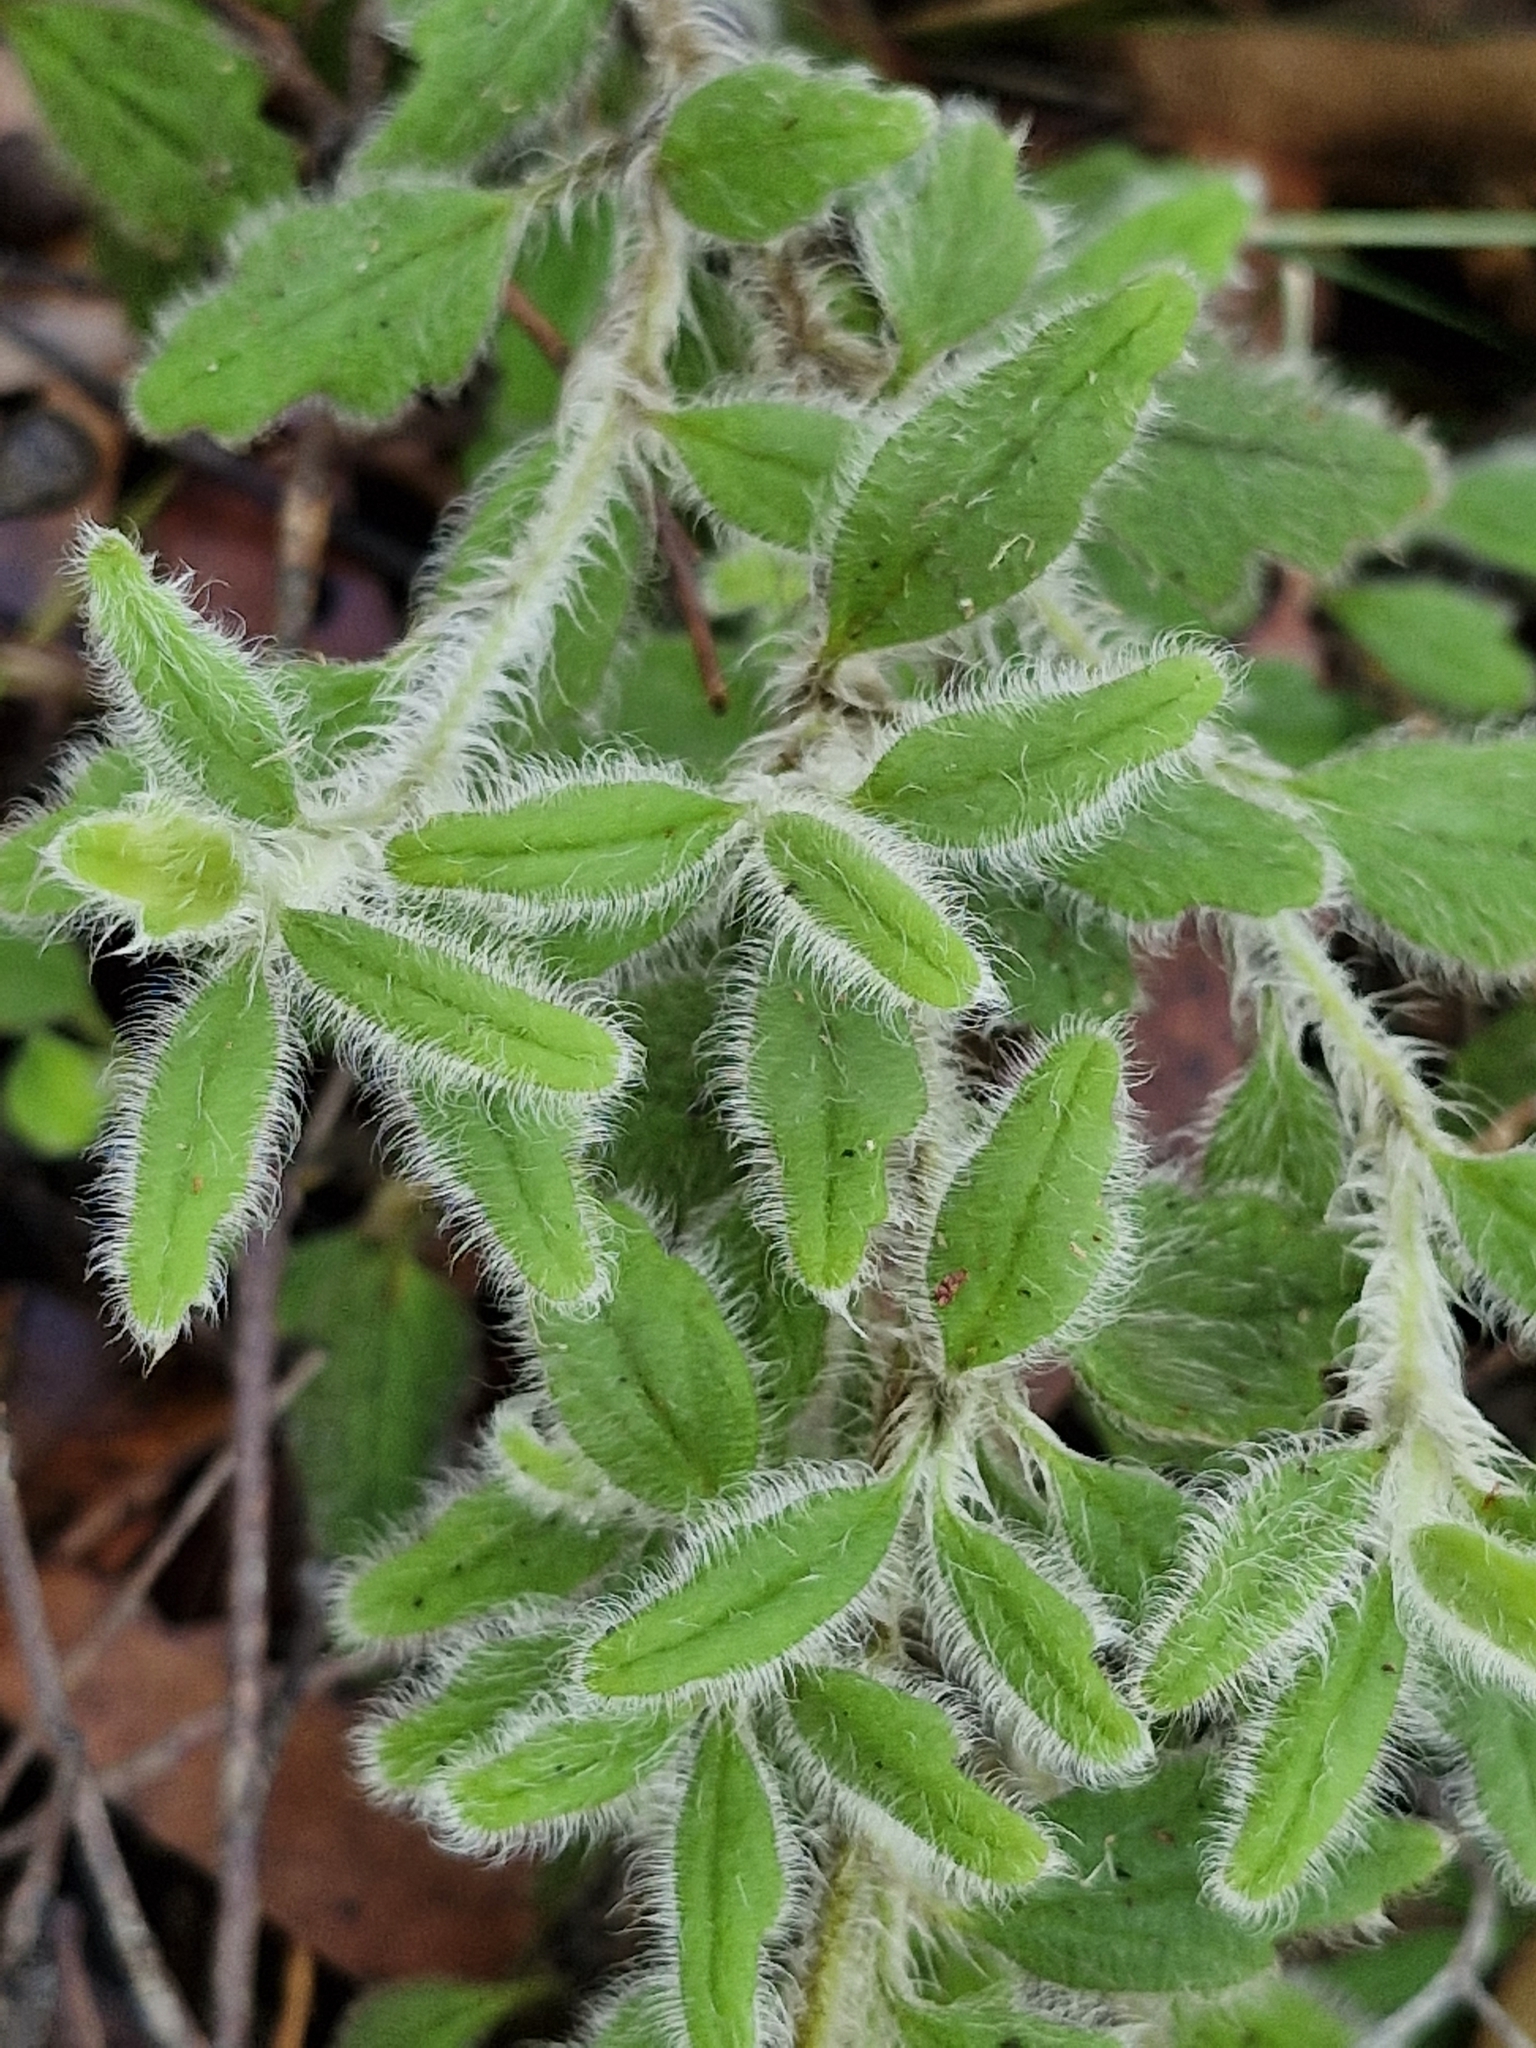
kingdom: Plantae
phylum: Tracheophyta
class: Magnoliopsida
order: Apiales
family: Apiaceae
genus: Xanthosia
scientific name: Xanthosia pilosa
